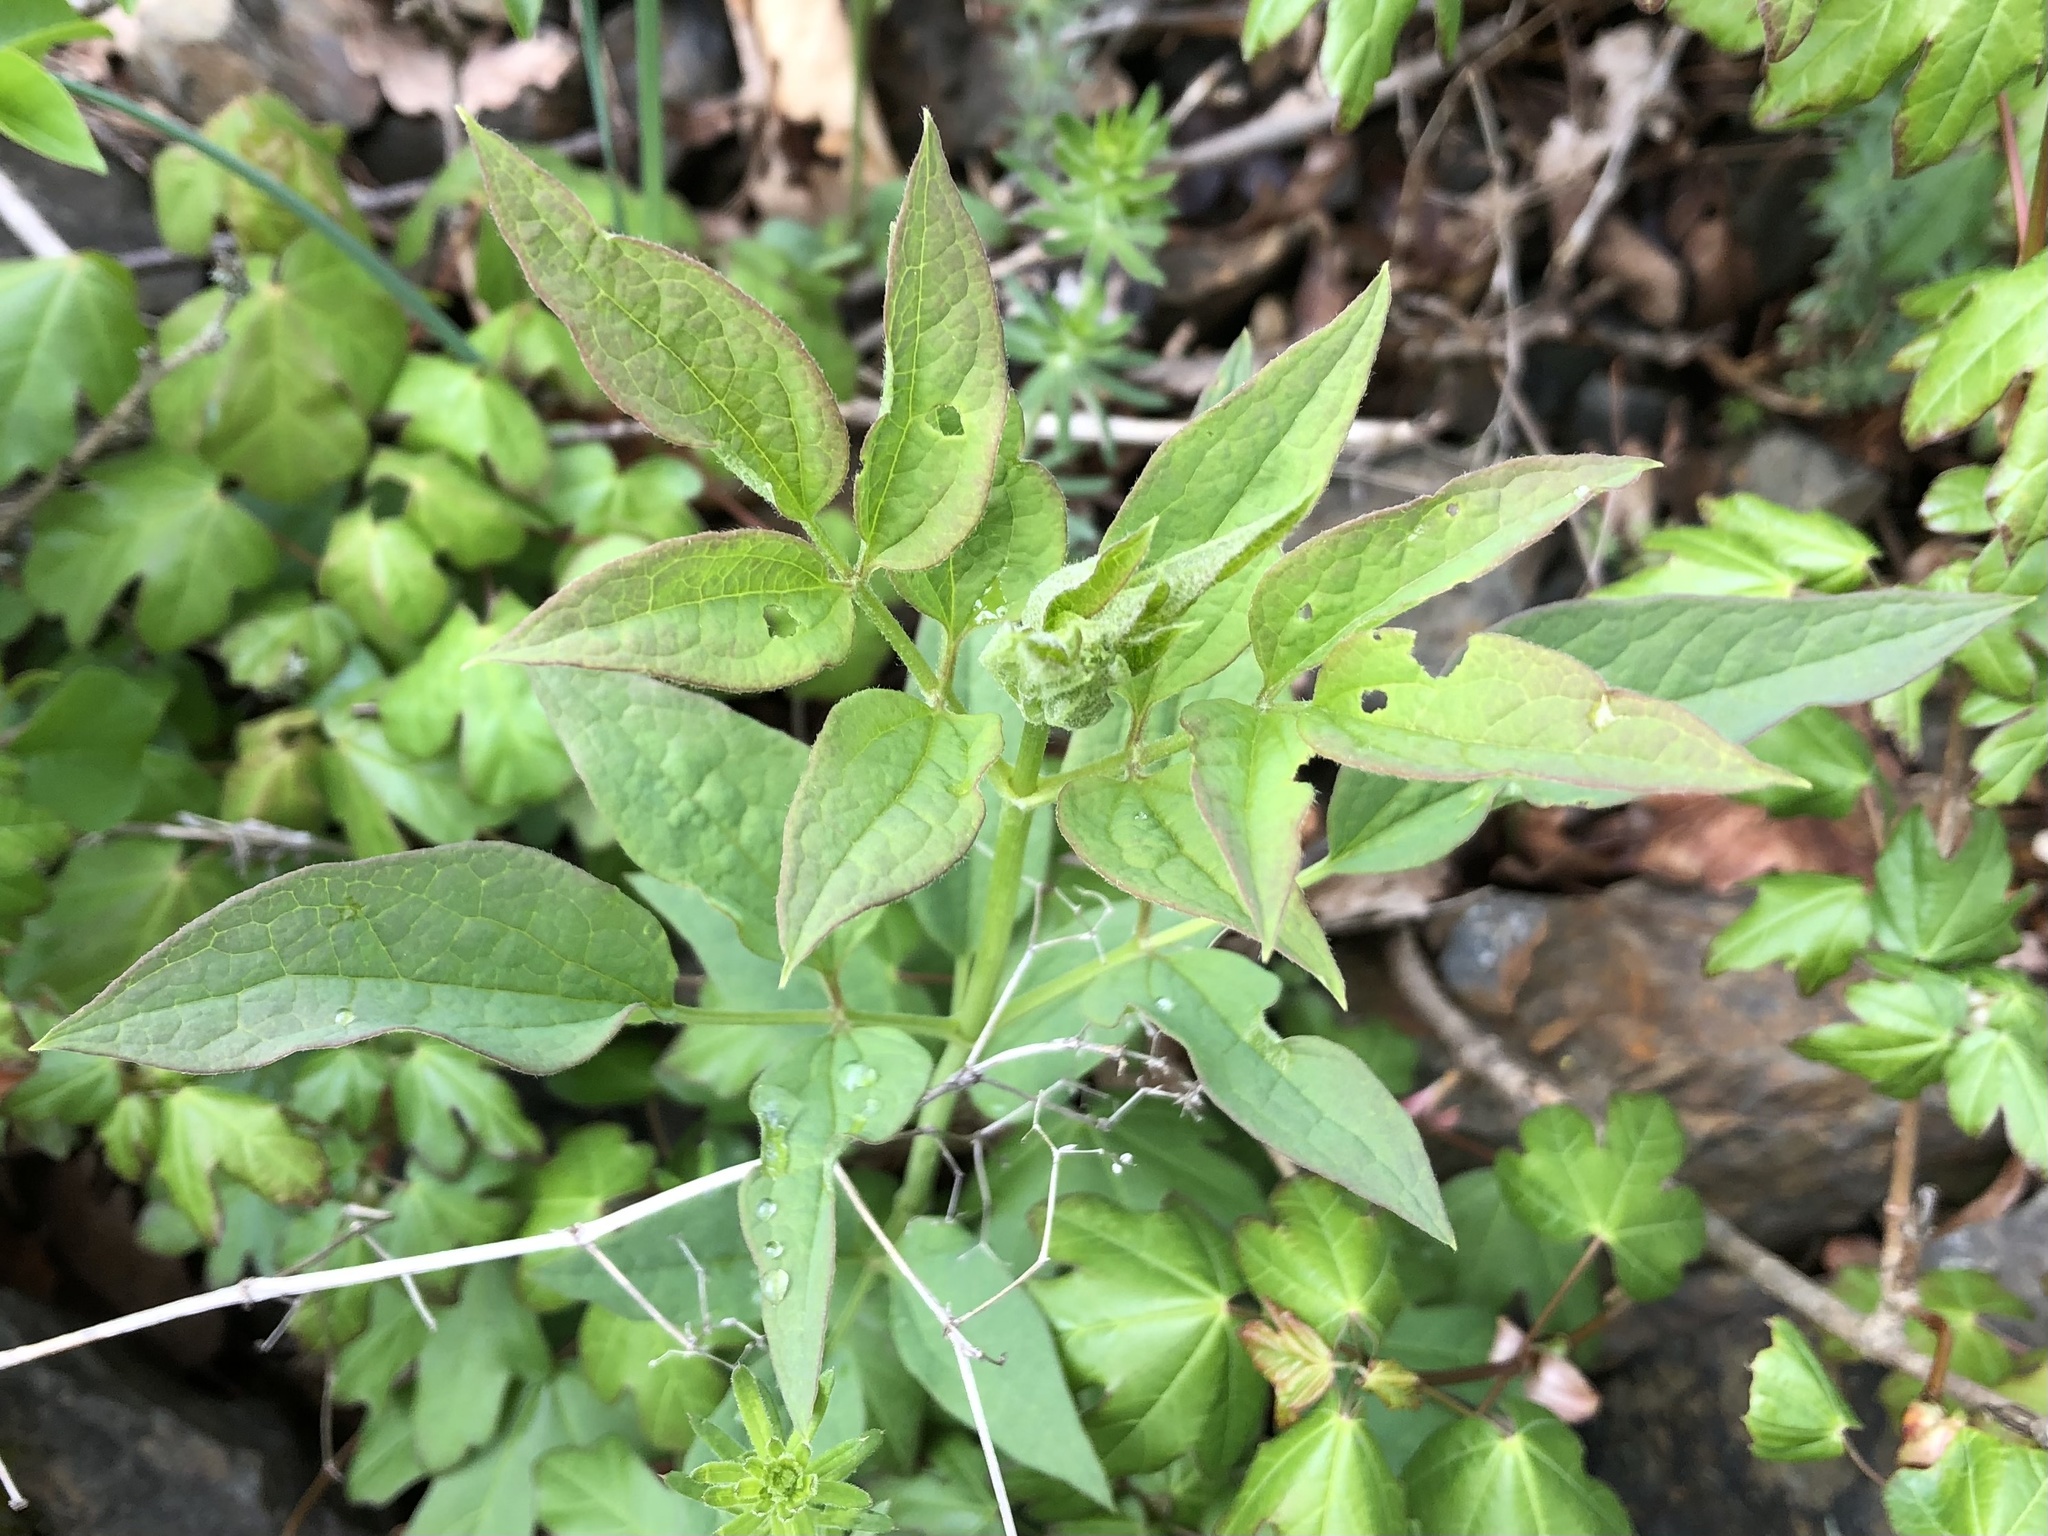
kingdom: Plantae
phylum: Tracheophyta
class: Magnoliopsida
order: Ranunculales
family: Ranunculaceae
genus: Clematis
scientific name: Clematis recta
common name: Ground clematis
